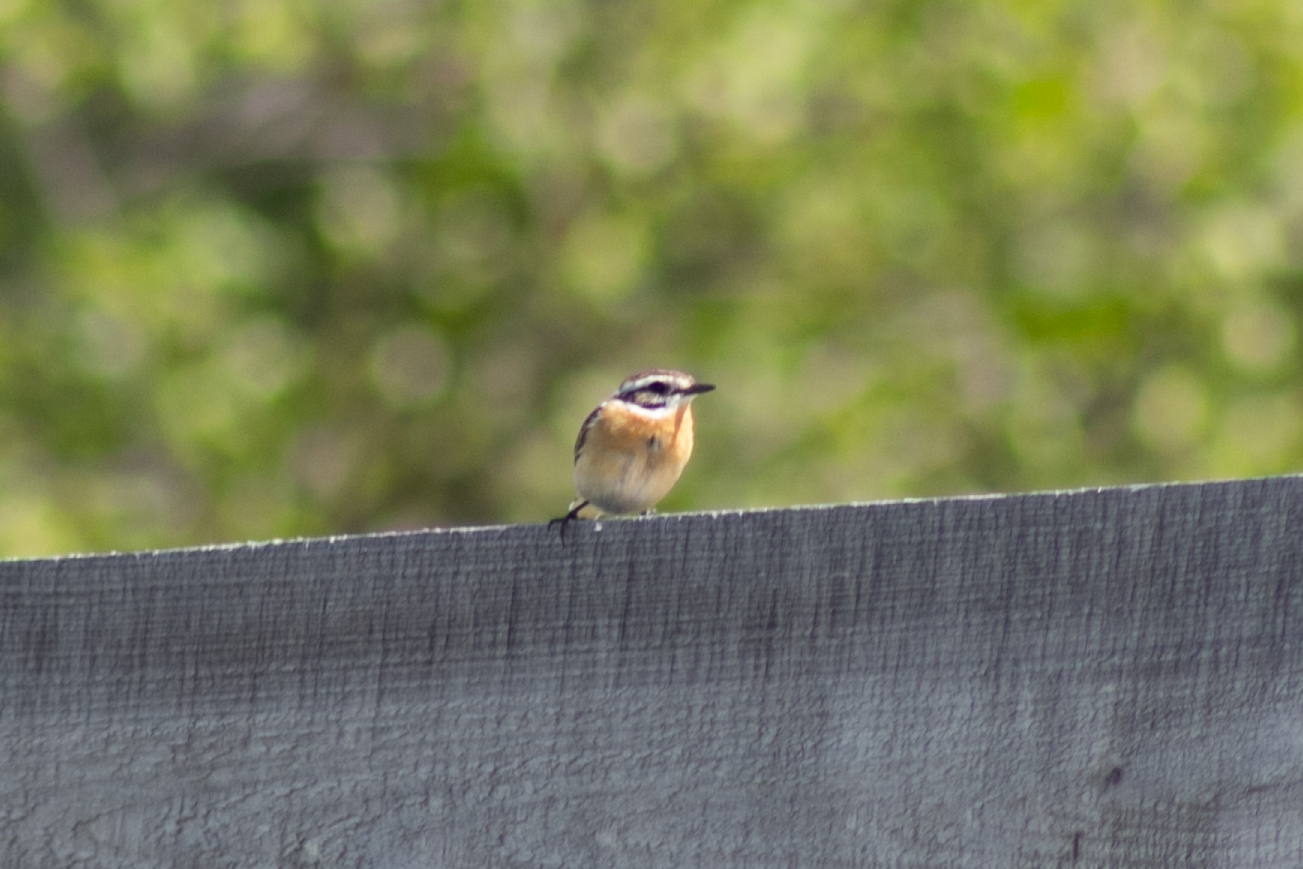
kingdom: Animalia
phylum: Chordata
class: Aves
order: Passeriformes
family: Muscicapidae
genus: Saxicola
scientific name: Saxicola rubetra
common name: Whinchat
